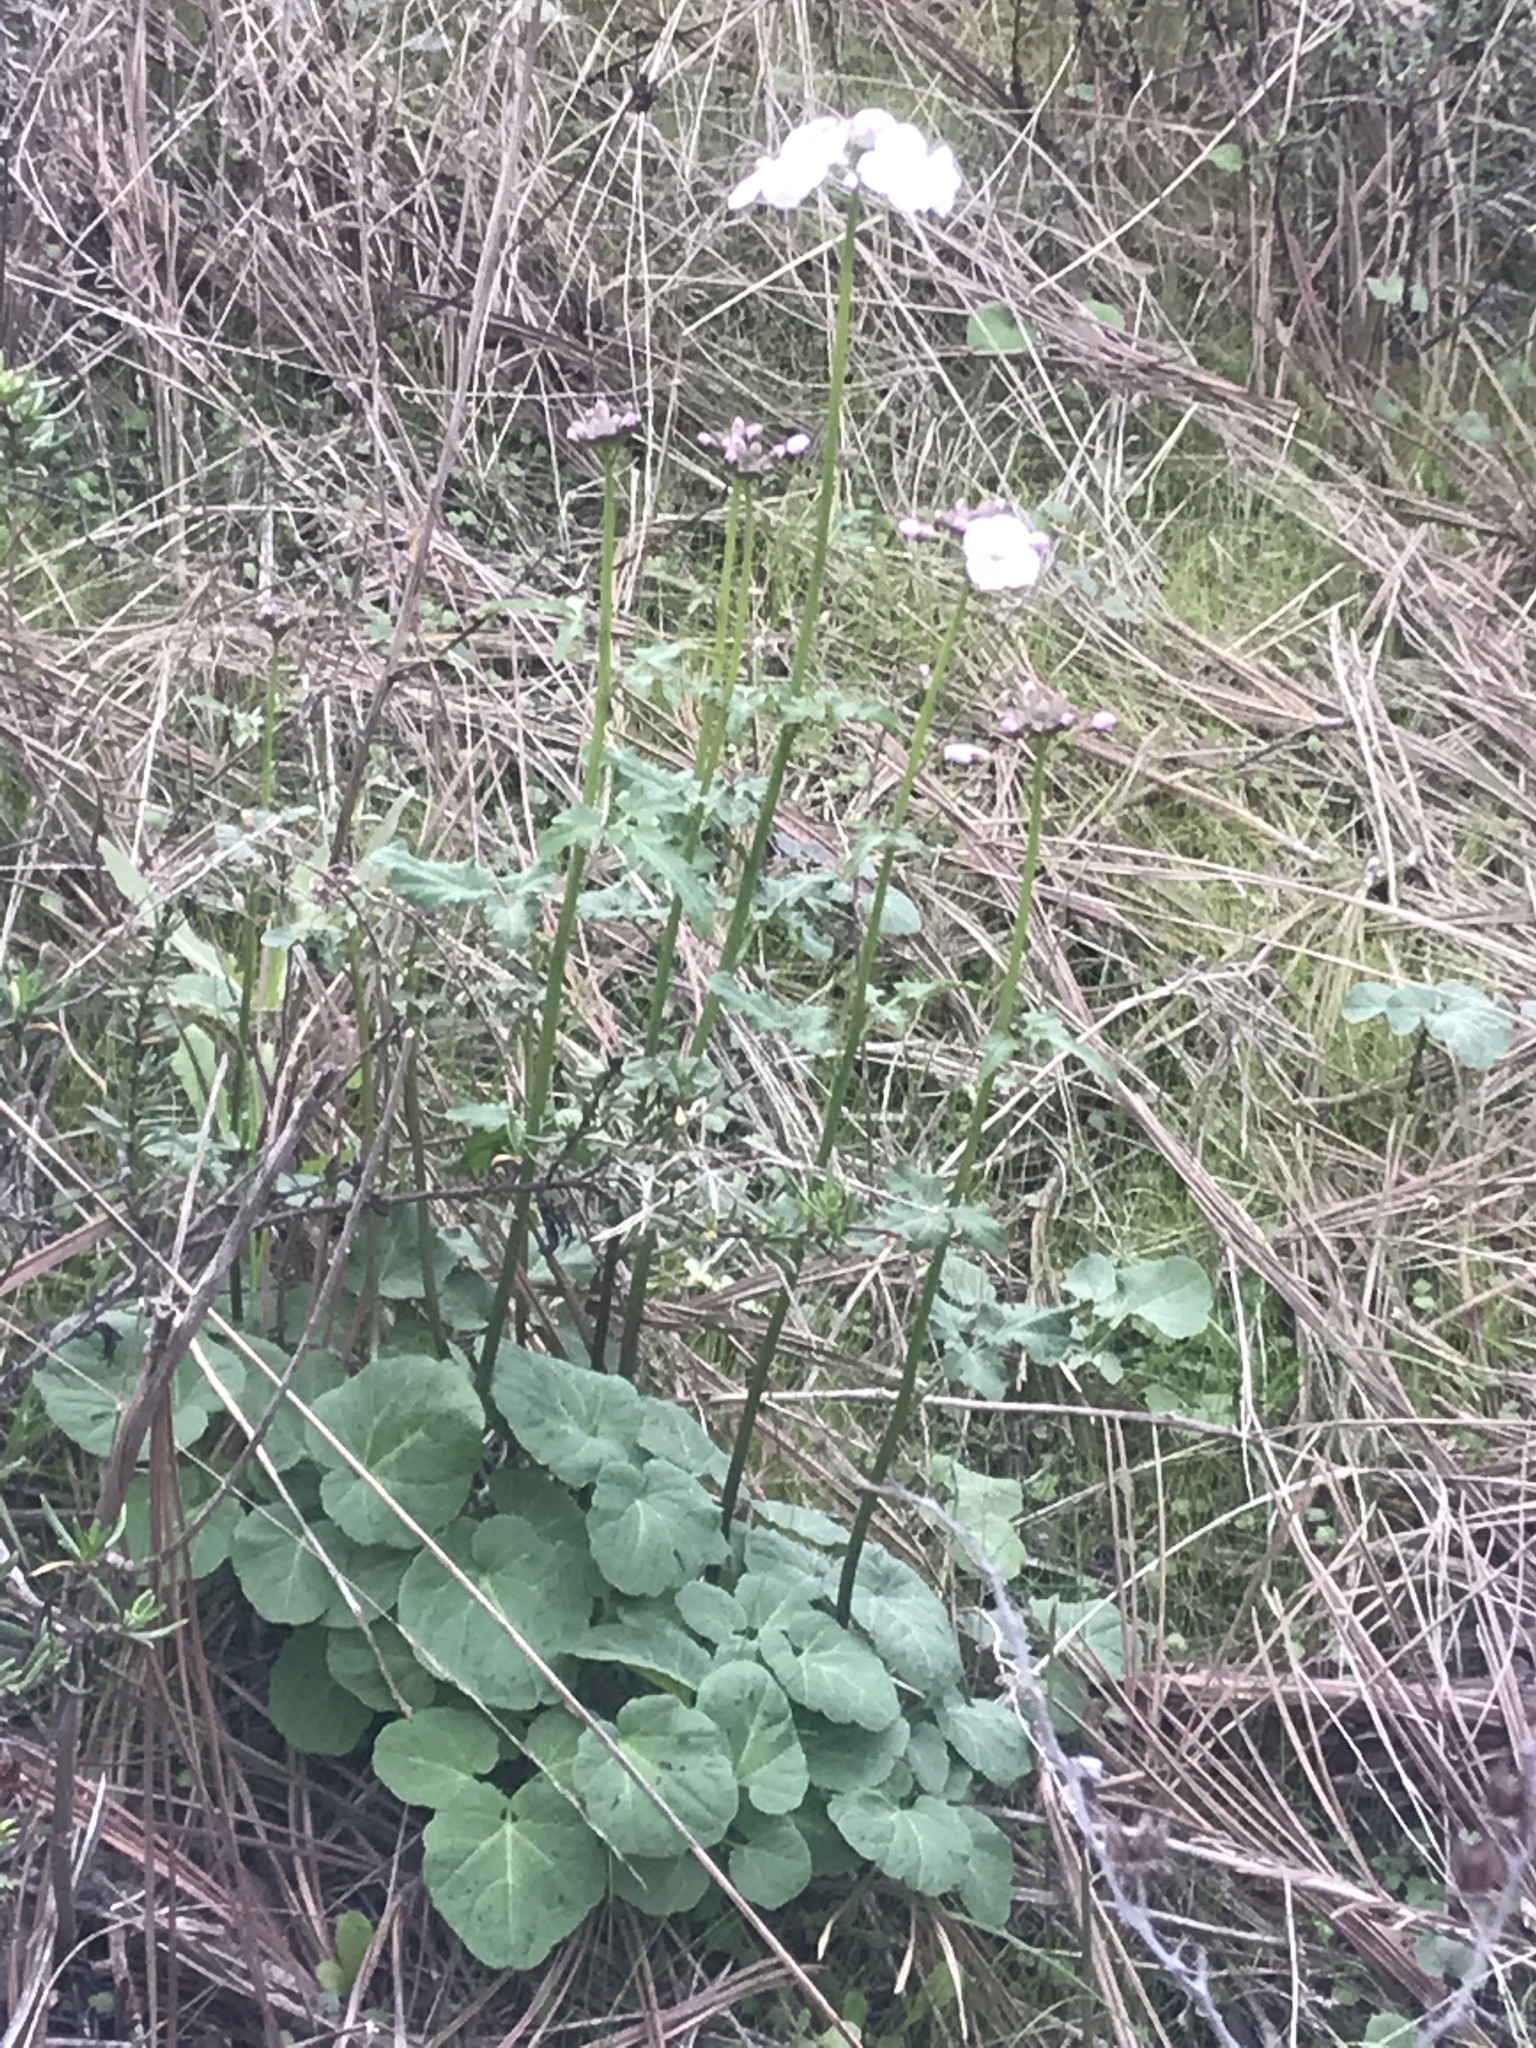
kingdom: Plantae
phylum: Tracheophyta
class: Magnoliopsida
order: Brassicales
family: Brassicaceae
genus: Cardamine
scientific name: Cardamine californica
